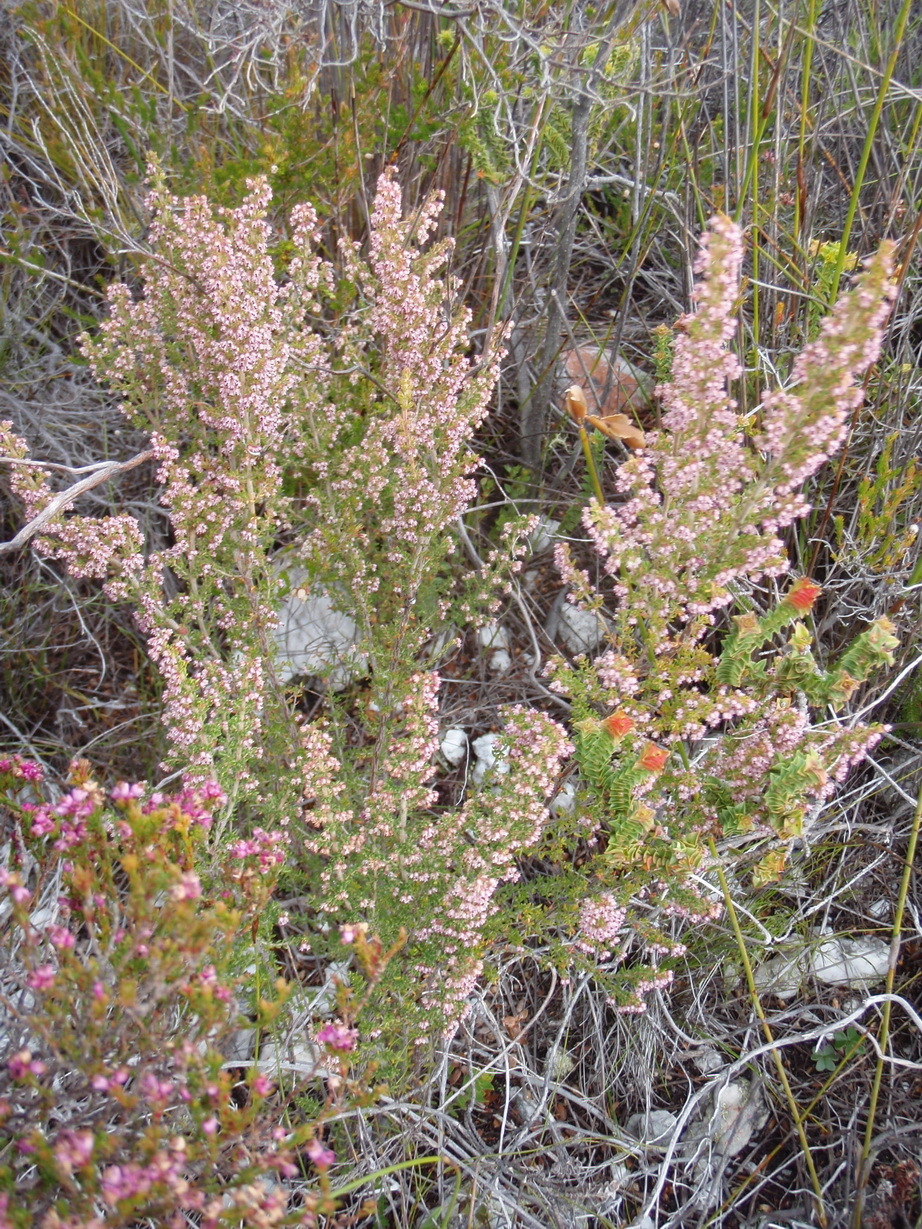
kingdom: Plantae
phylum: Tracheophyta
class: Magnoliopsida
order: Ericales
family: Ericaceae
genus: Erica
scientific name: Erica hispidula
